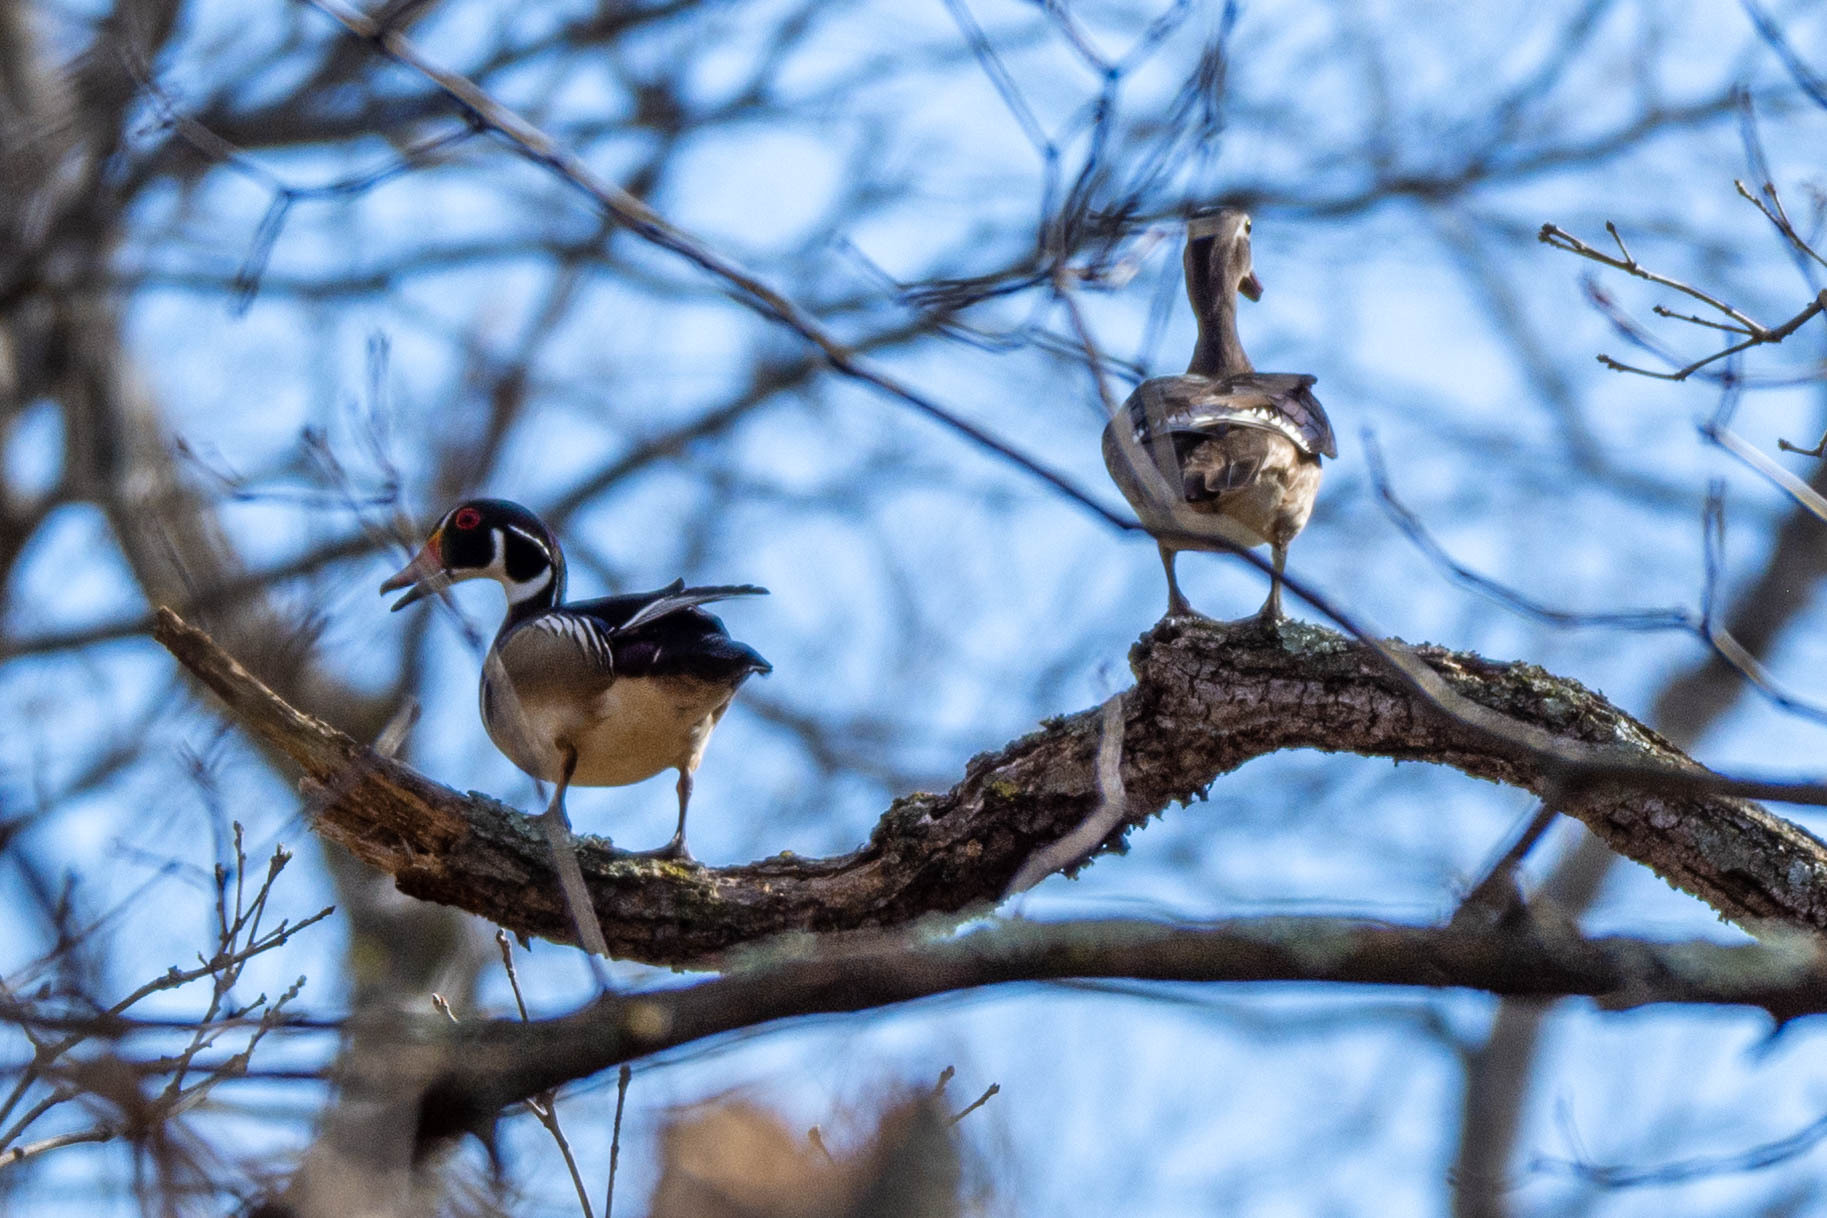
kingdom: Animalia
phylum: Chordata
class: Aves
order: Anseriformes
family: Anatidae
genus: Aix
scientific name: Aix sponsa
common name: Wood duck
